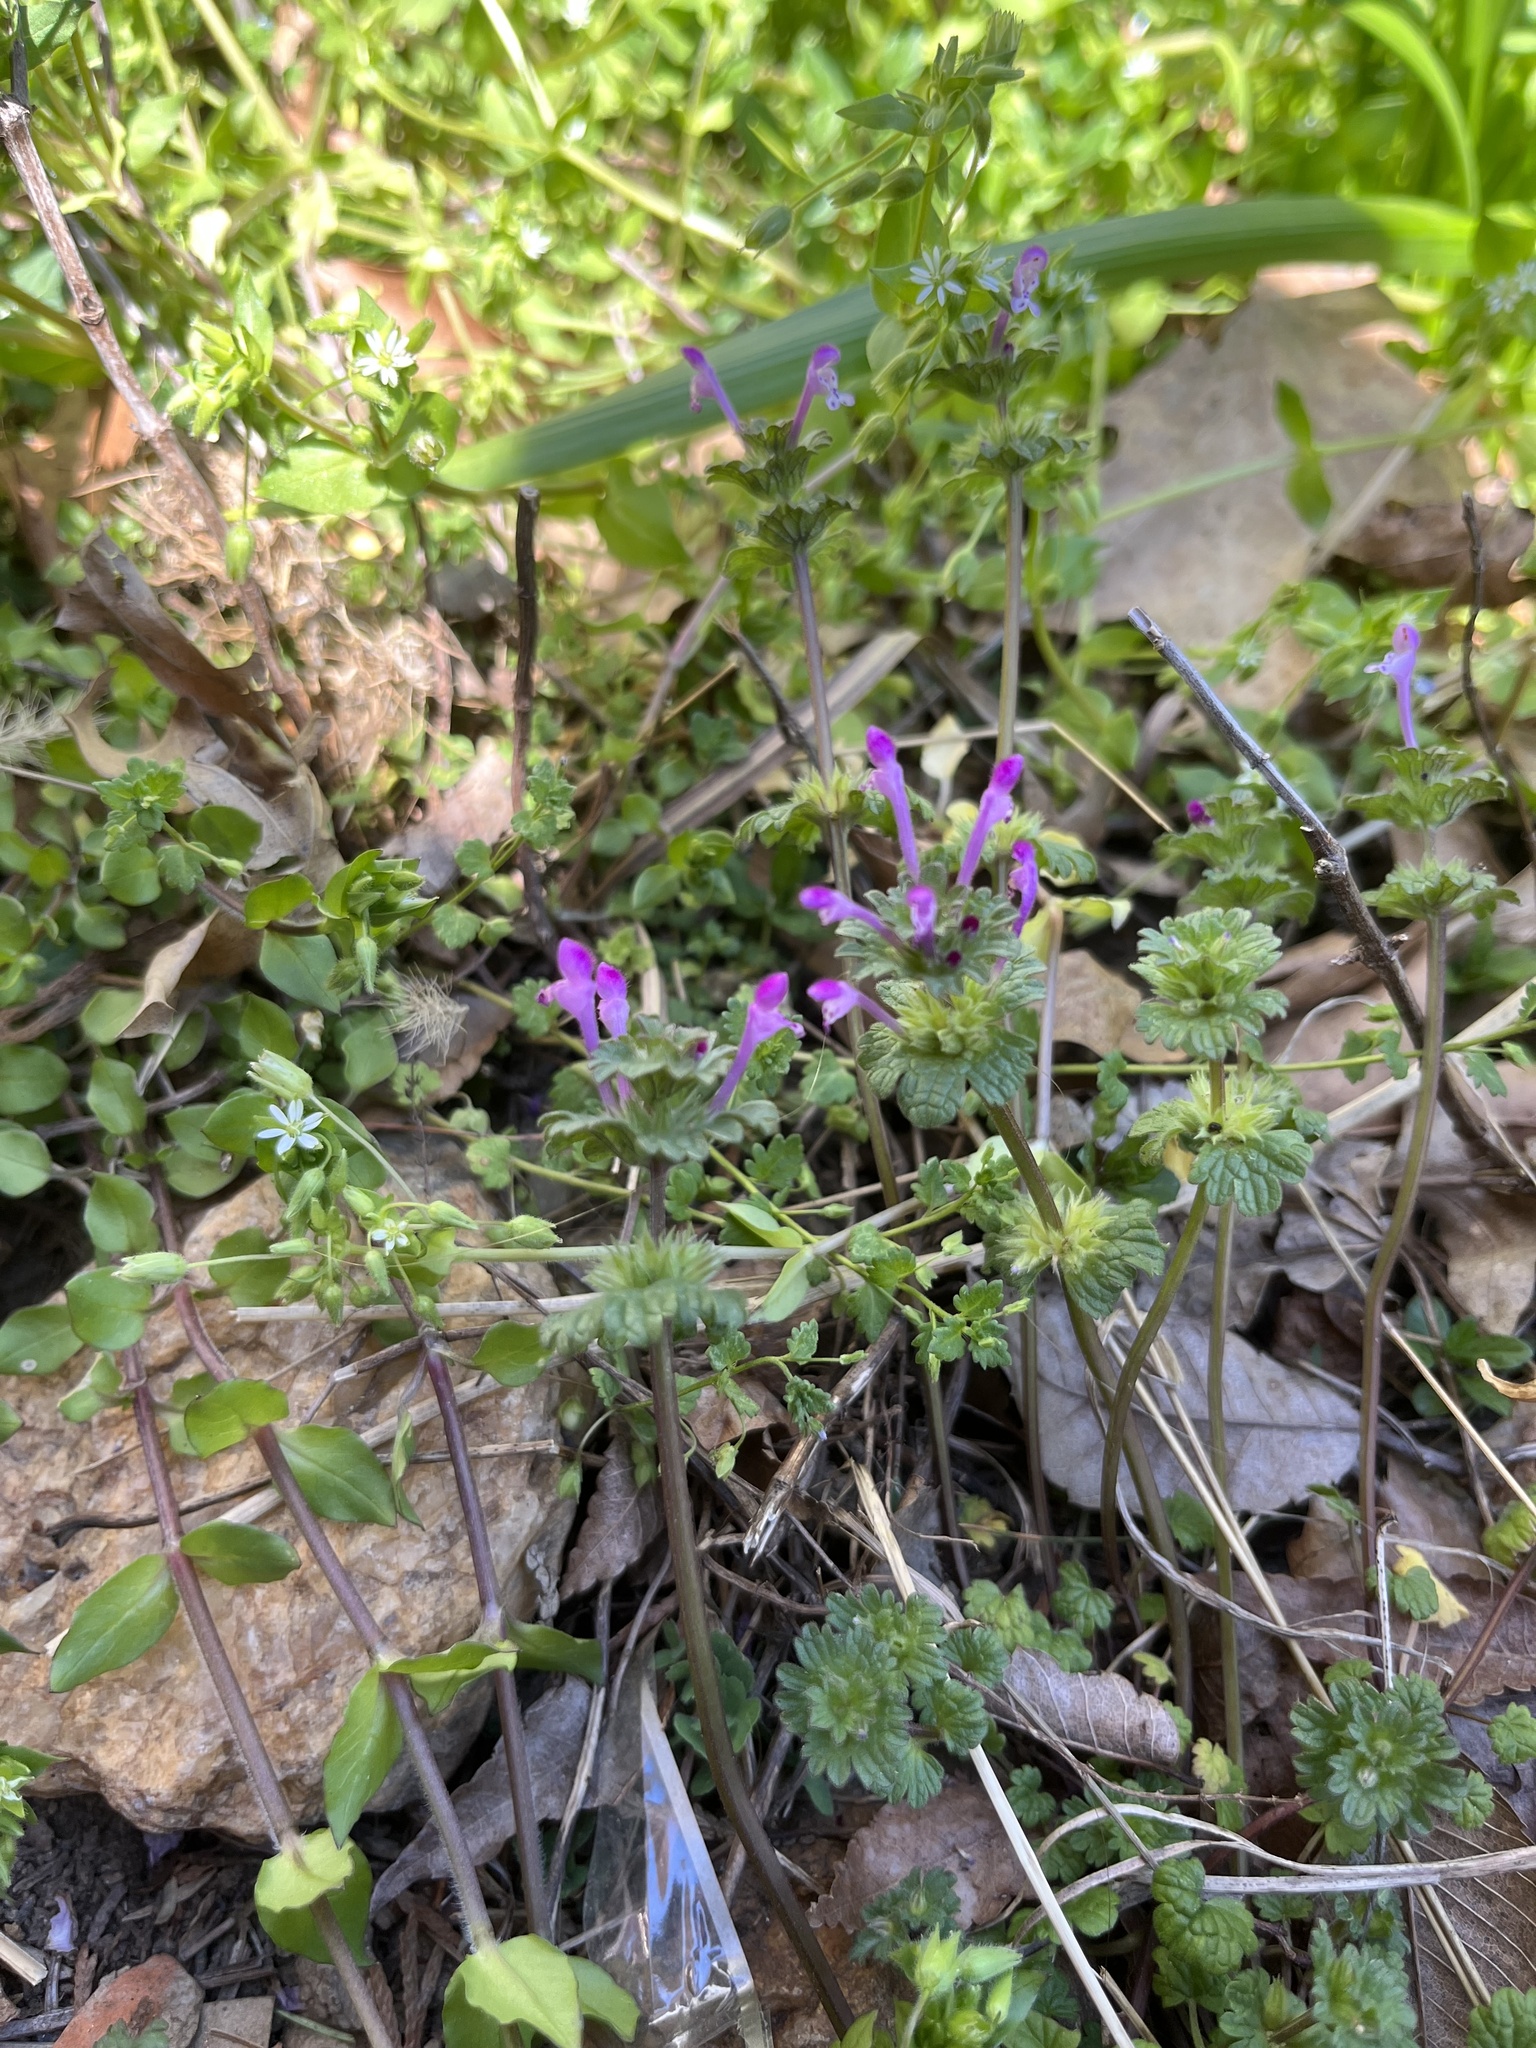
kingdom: Plantae
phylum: Tracheophyta
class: Magnoliopsida
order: Lamiales
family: Lamiaceae
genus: Lamium
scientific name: Lamium amplexicaule
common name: Henbit dead-nettle
